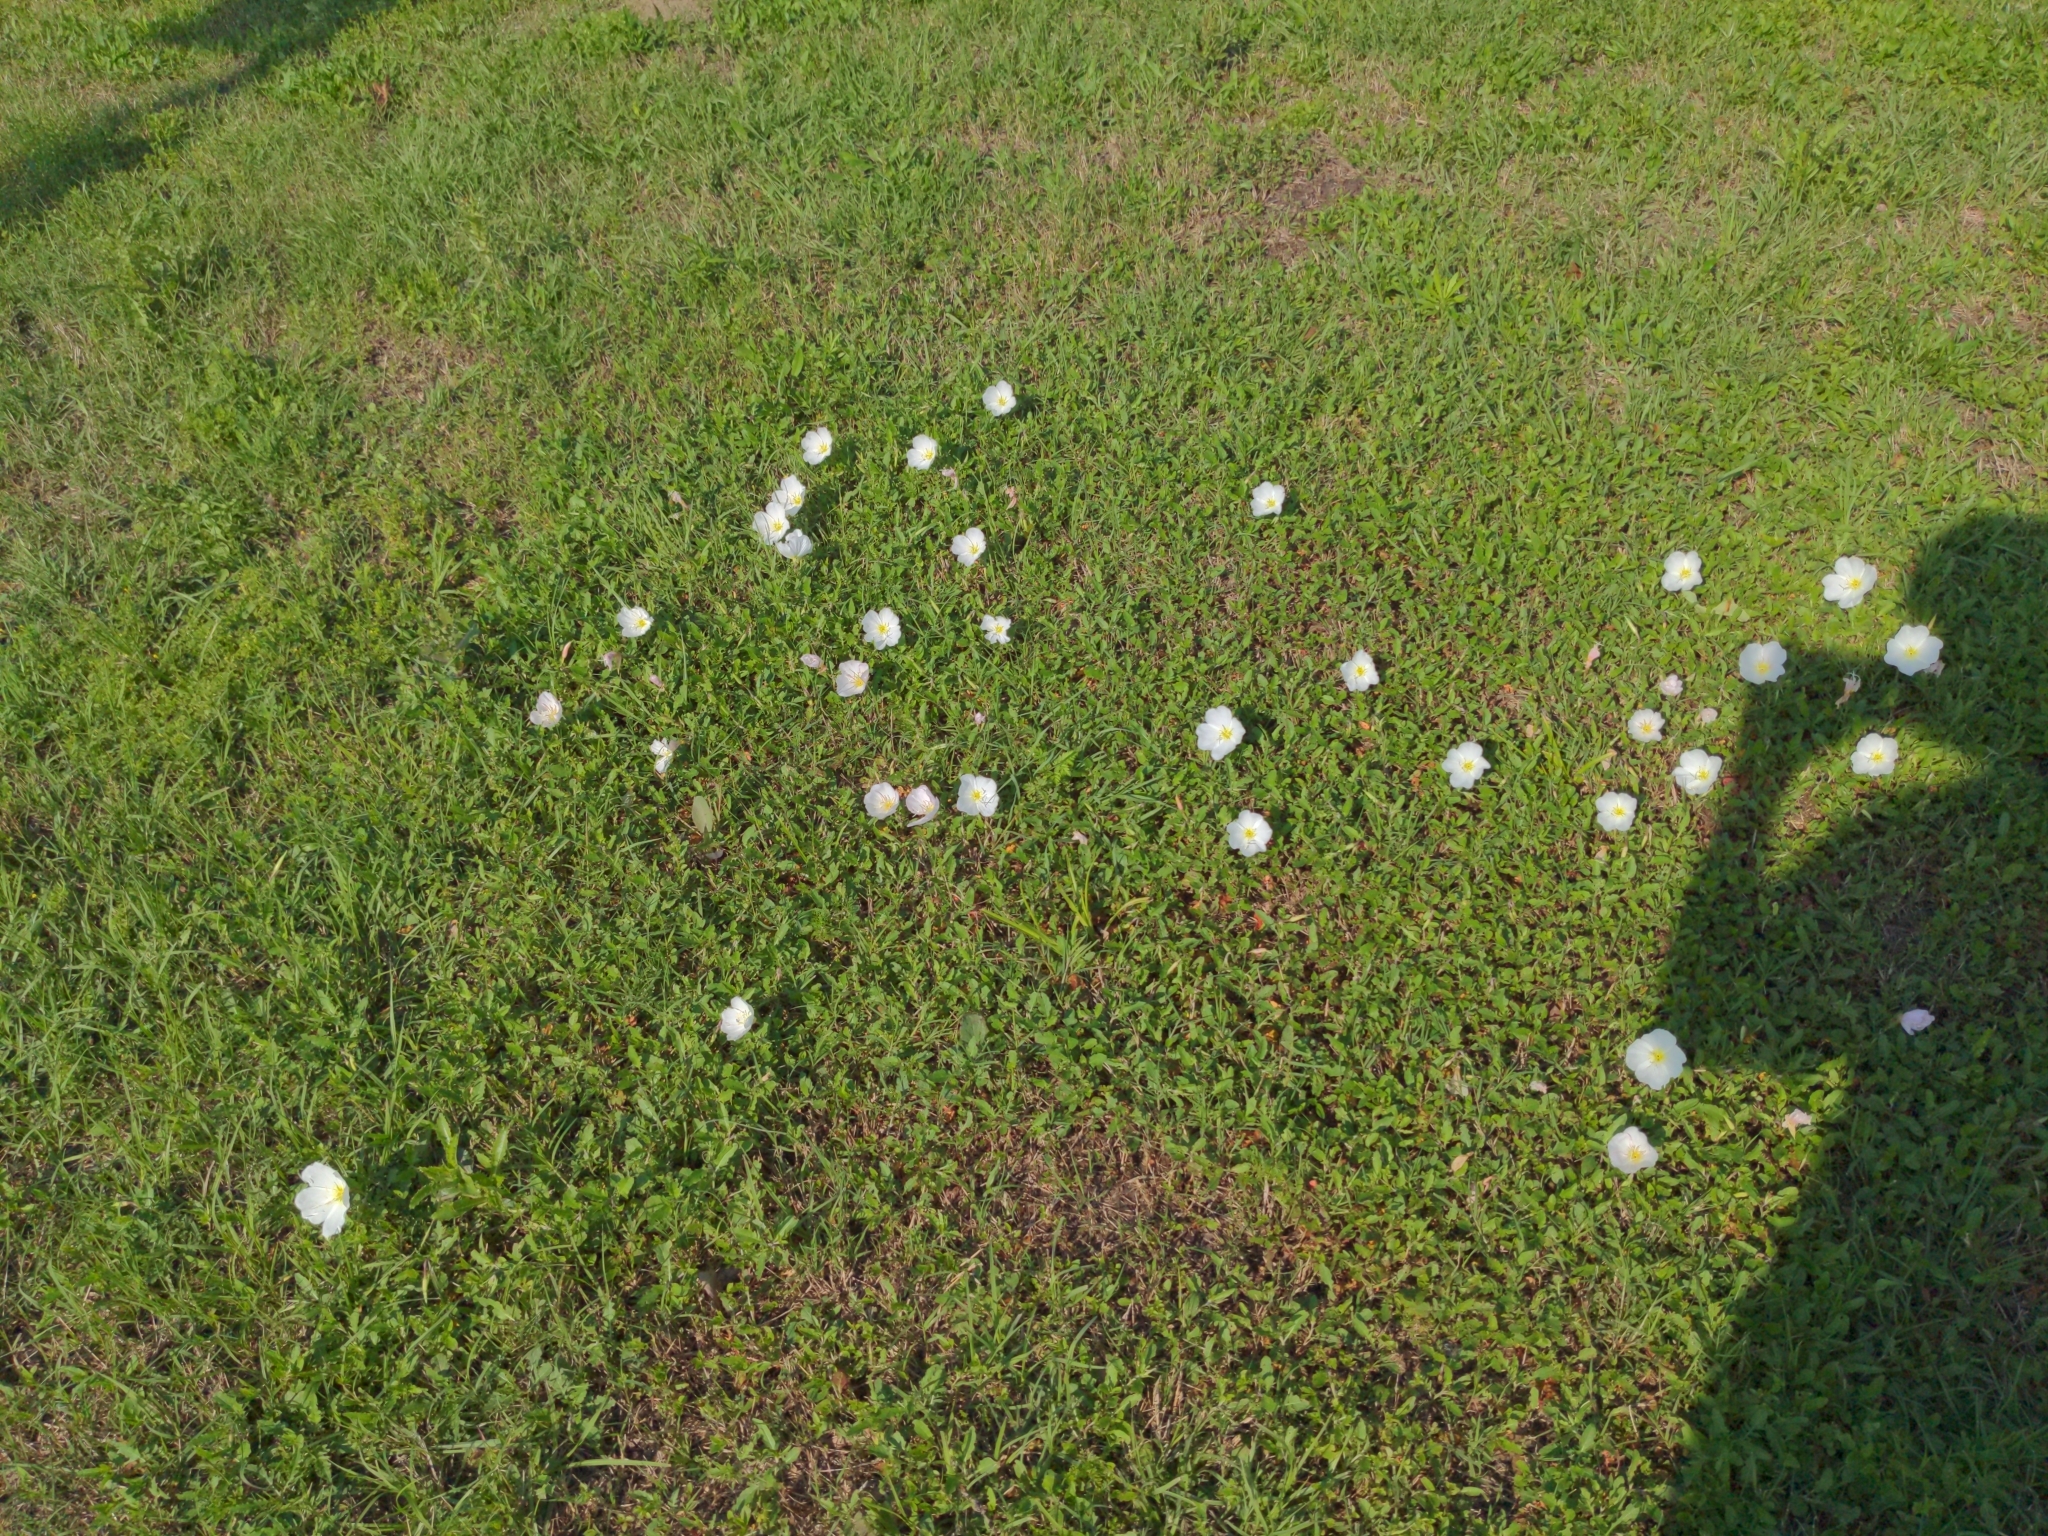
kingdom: Plantae
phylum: Tracheophyta
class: Magnoliopsida
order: Myrtales
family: Onagraceae
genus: Oenothera
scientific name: Oenothera speciosa
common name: White evening-primrose
